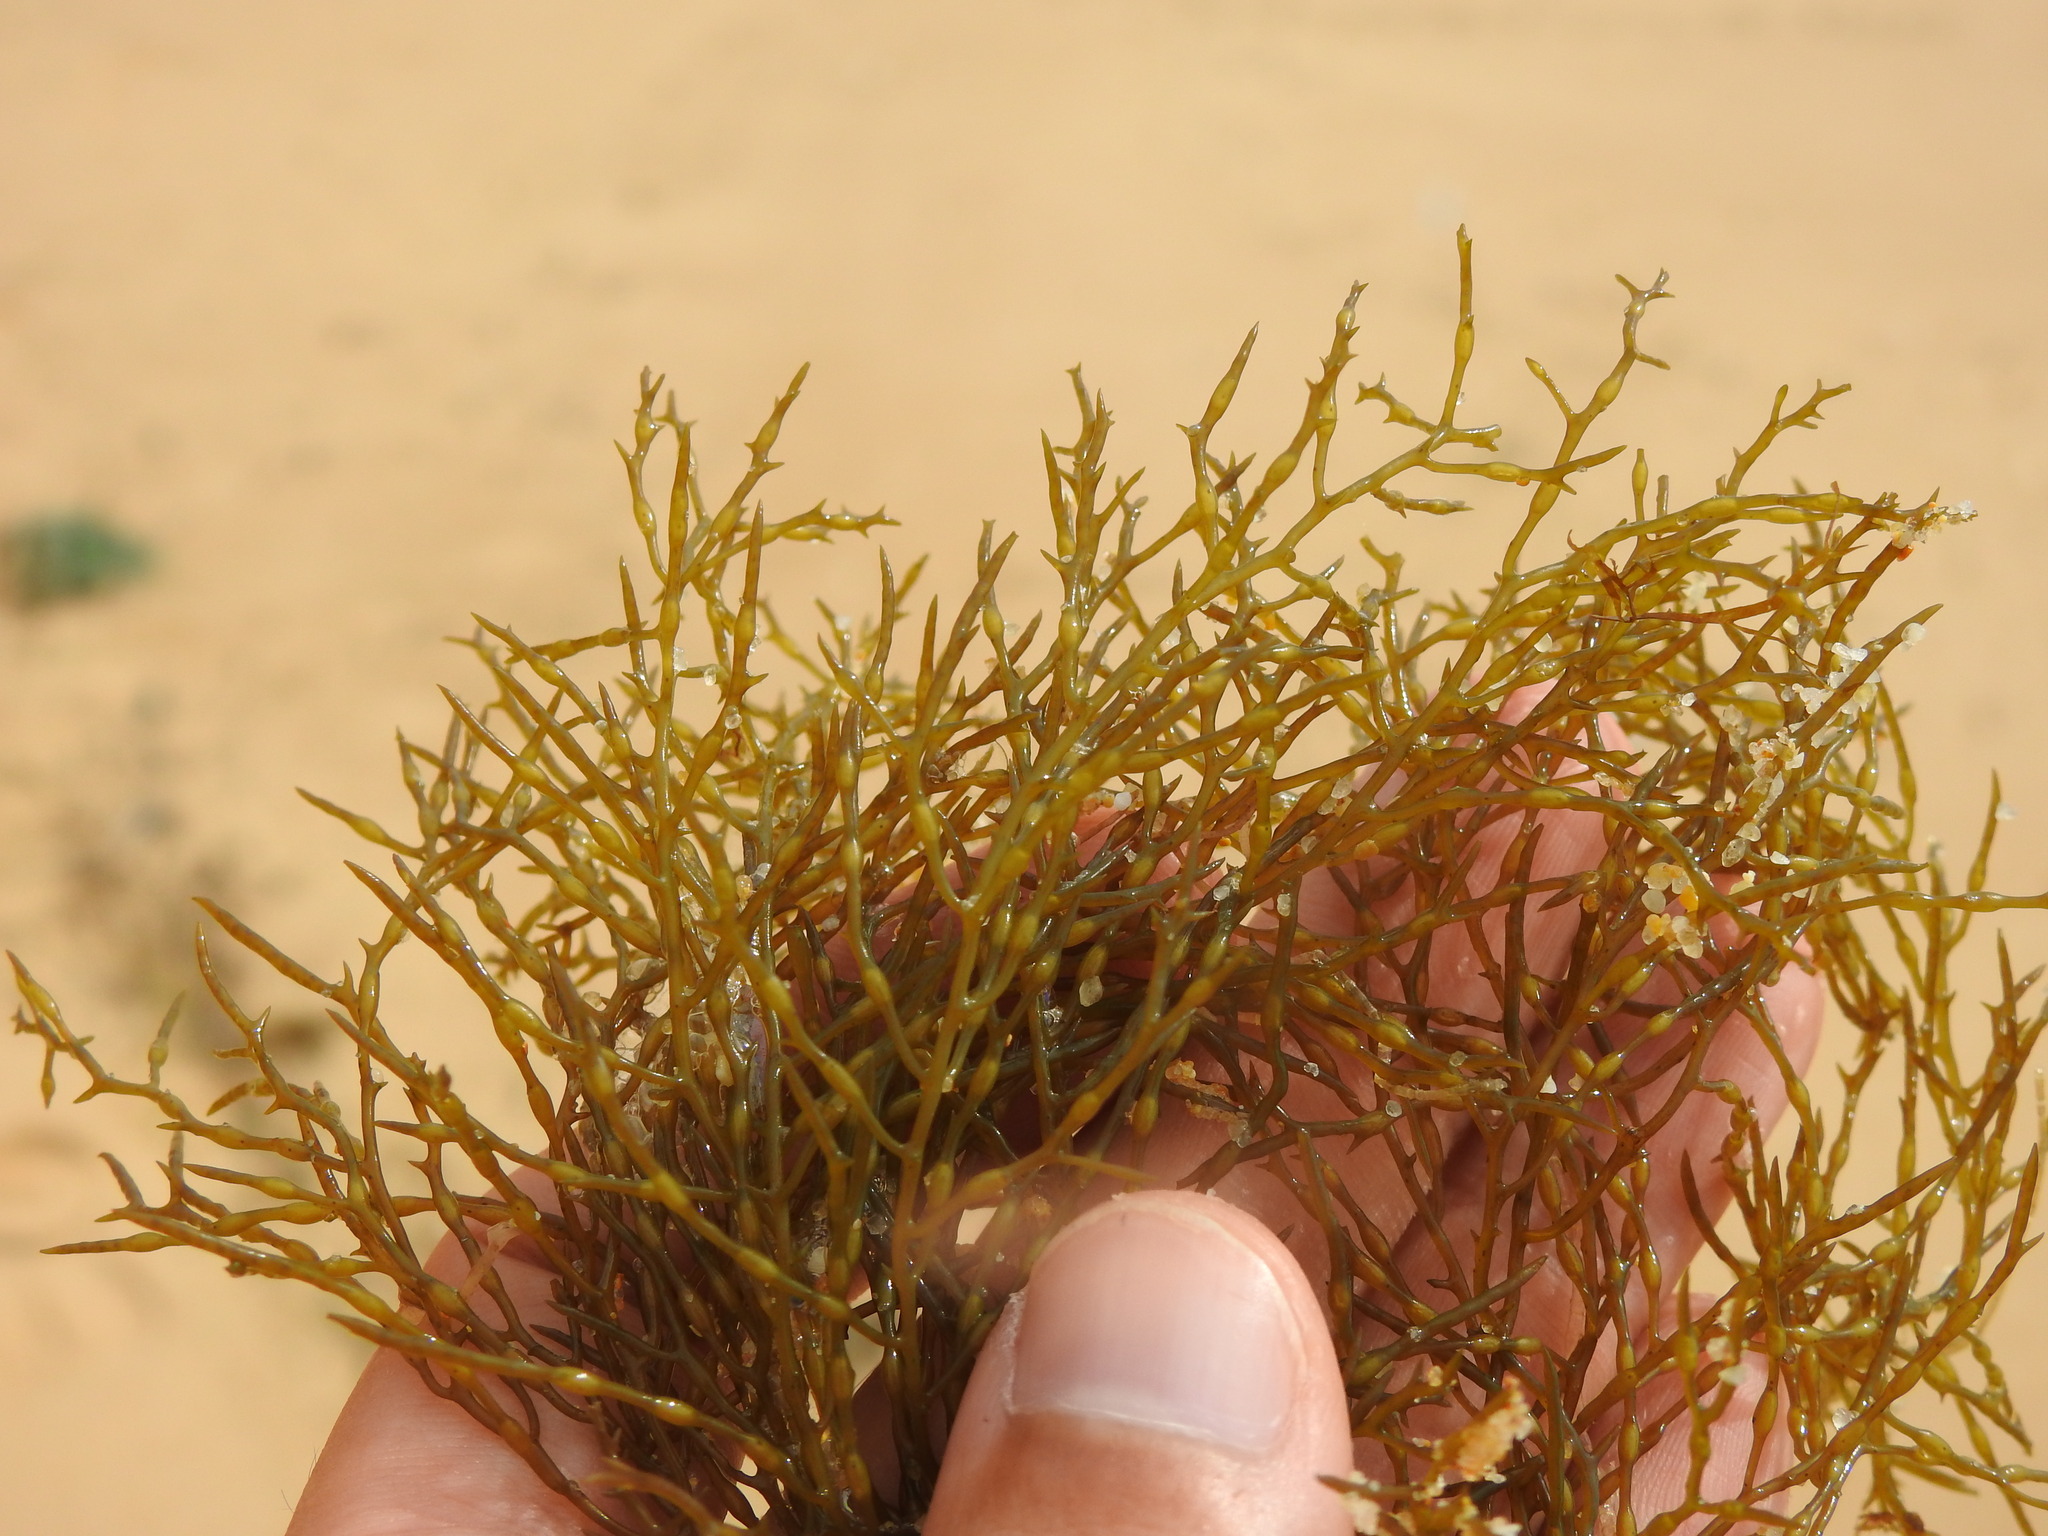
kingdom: Chromista
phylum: Ochrophyta
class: Phaeophyceae
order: Fucales
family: Sargassaceae
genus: Cystoseira
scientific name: Cystoseira Gongolaria usneoides
